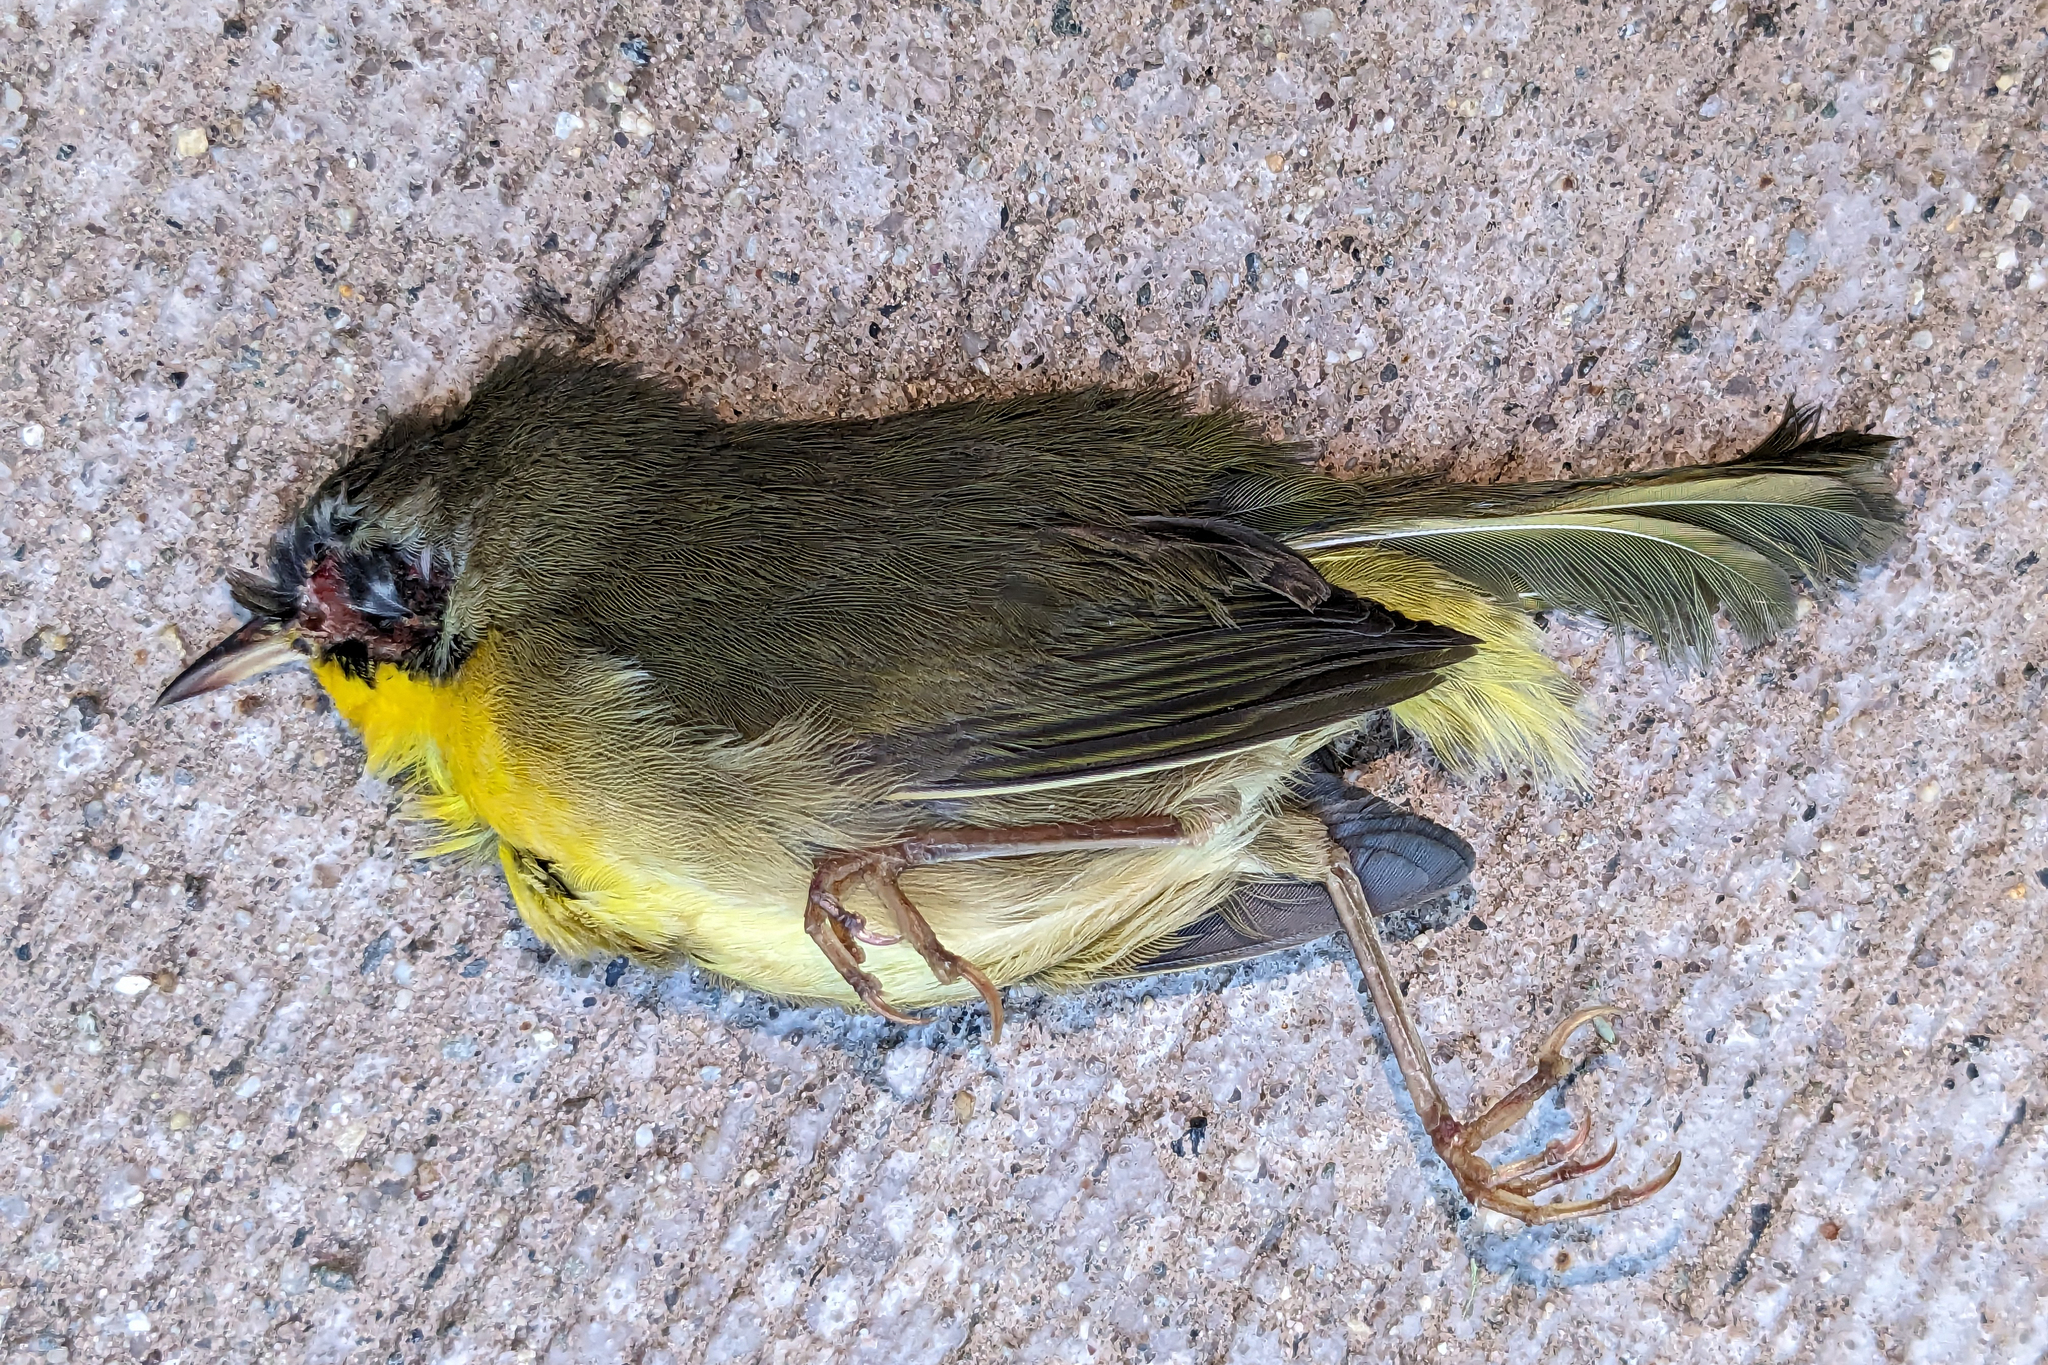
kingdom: Animalia
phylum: Chordata
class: Aves
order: Passeriformes
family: Parulidae
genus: Geothlypis
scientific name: Geothlypis trichas
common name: Common yellowthroat
